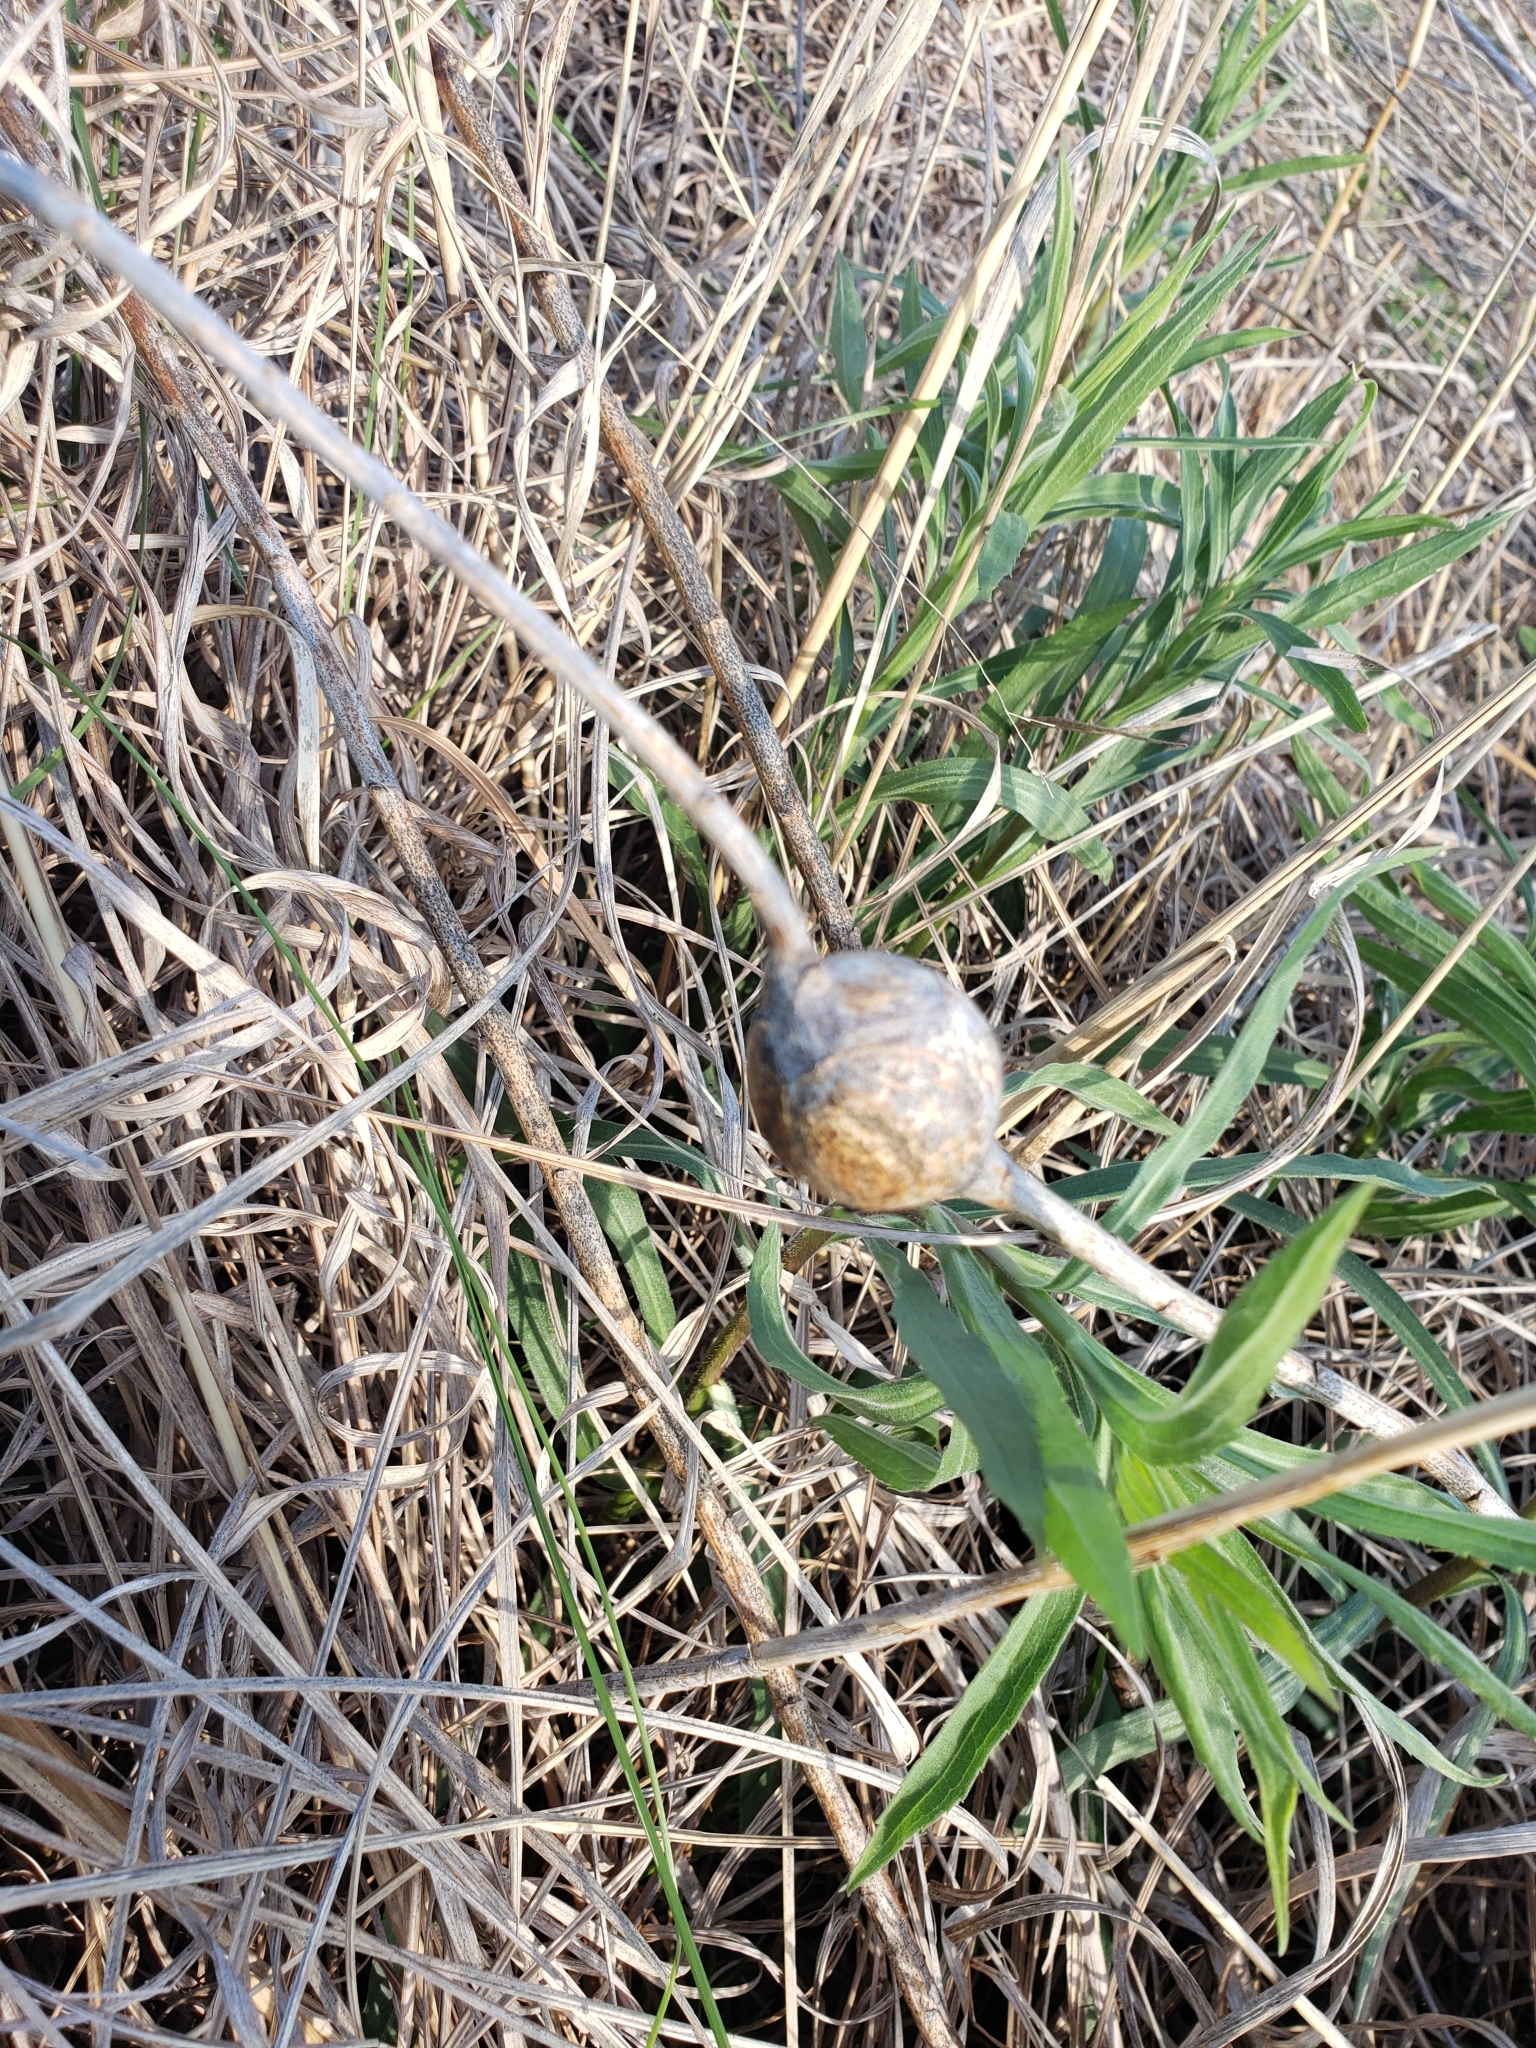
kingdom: Animalia
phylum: Arthropoda
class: Insecta
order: Diptera
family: Tephritidae
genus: Eurosta
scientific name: Eurosta solidaginis
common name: Goldenrod gall fly
